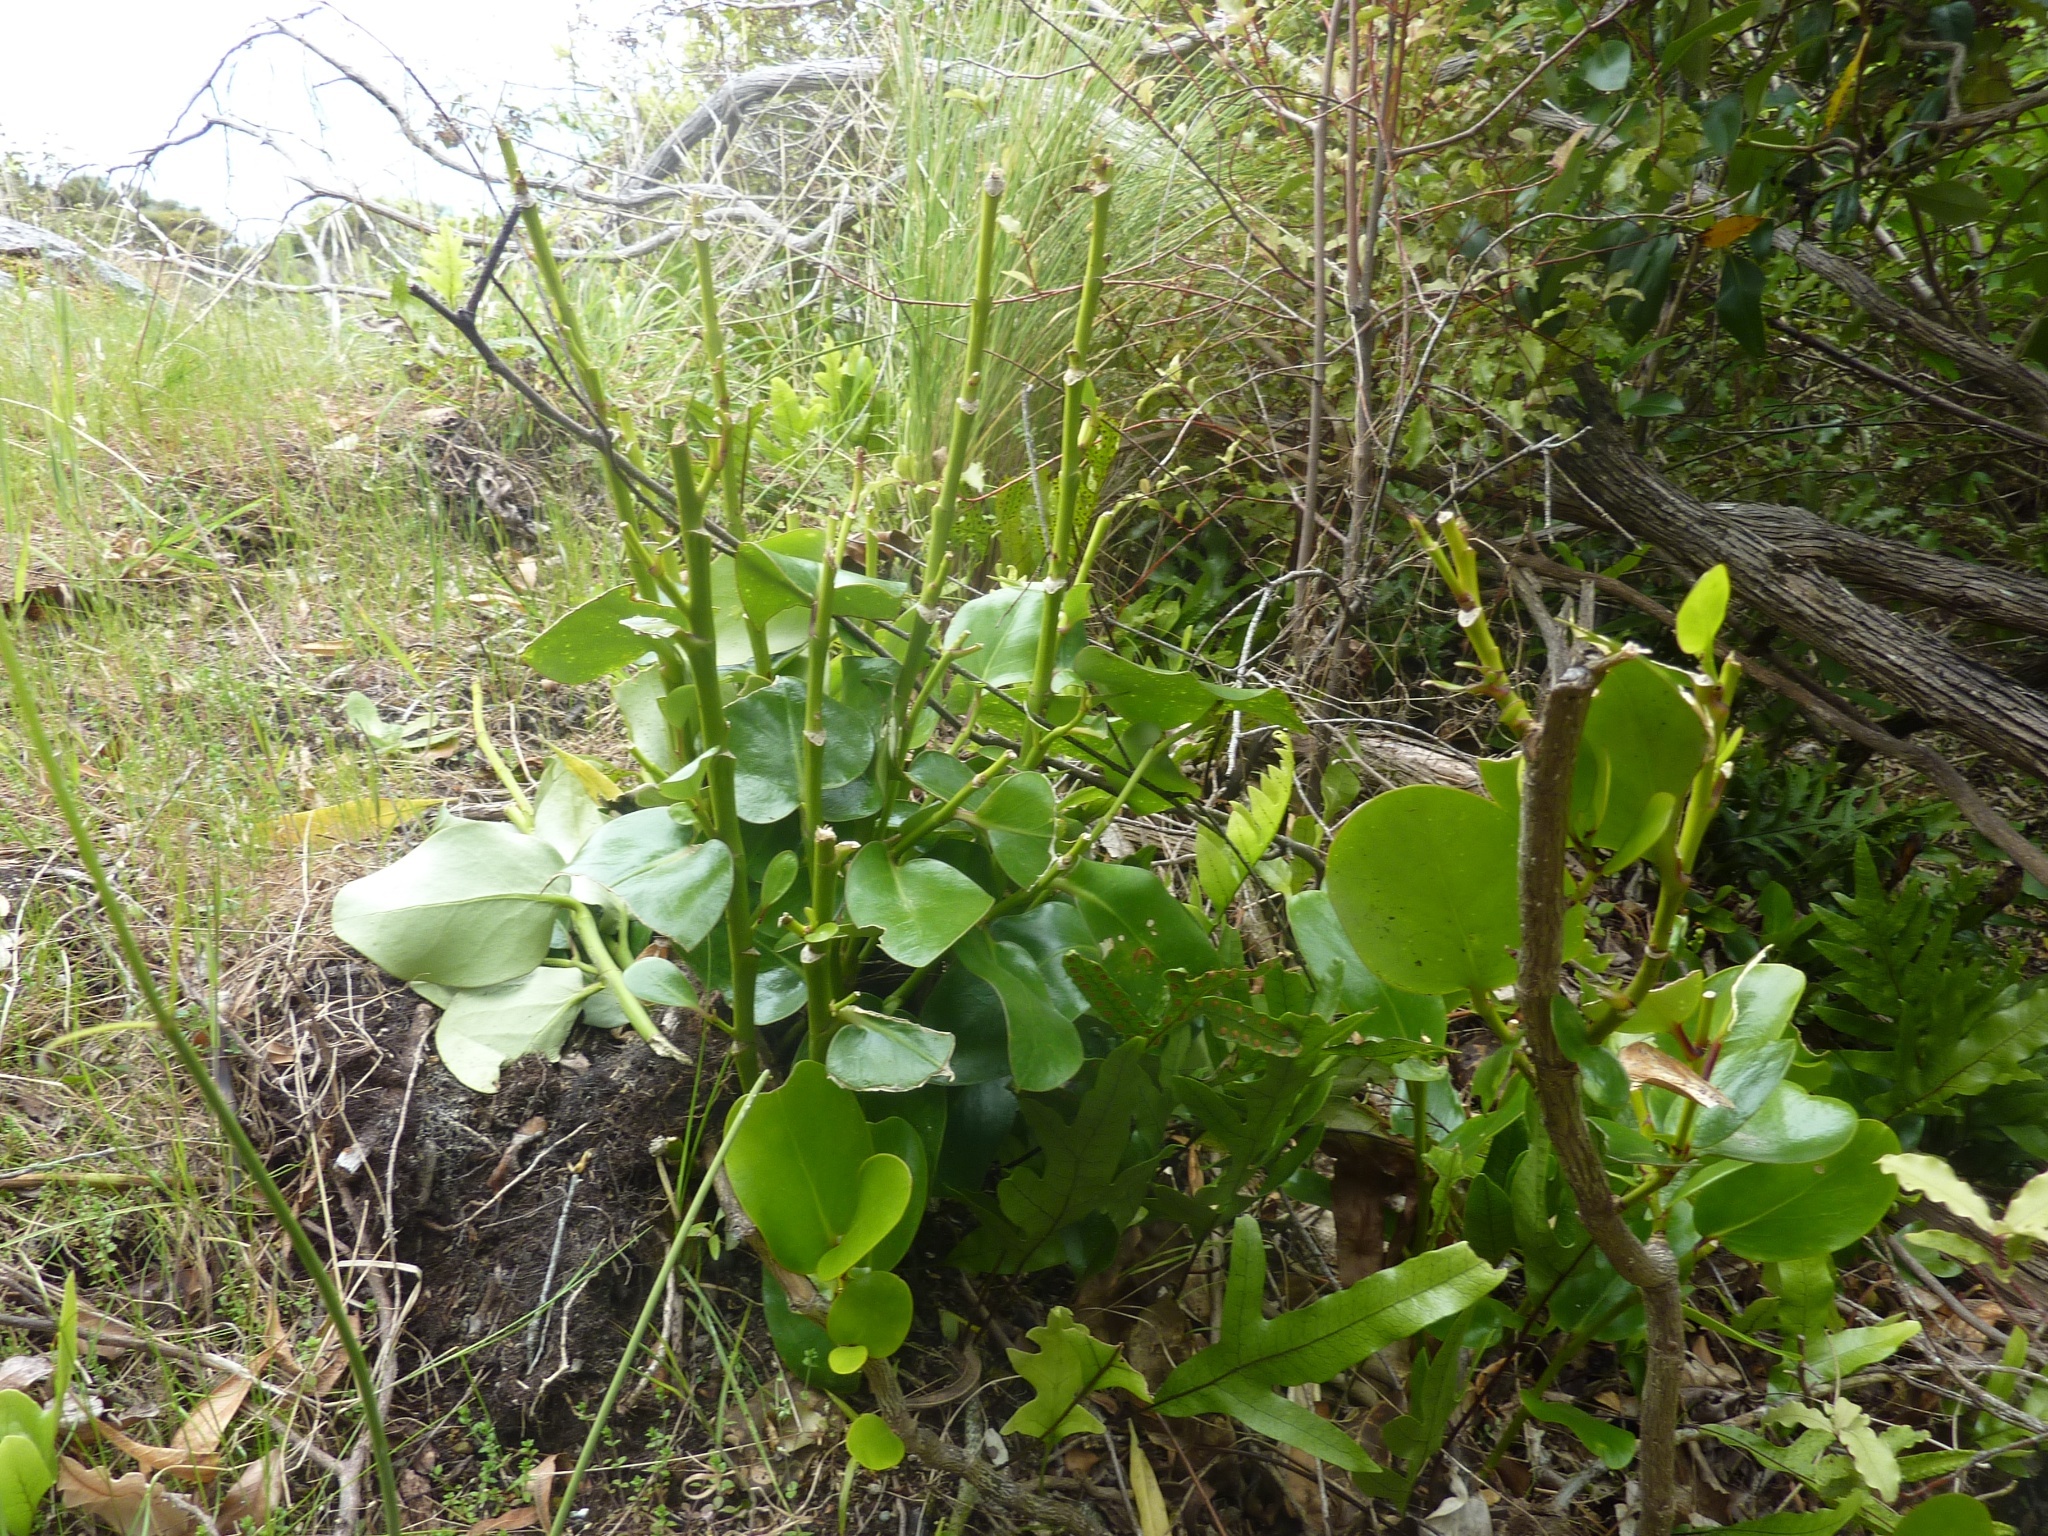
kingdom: Plantae
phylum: Tracheophyta
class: Magnoliopsida
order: Apiales
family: Griseliniaceae
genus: Griselinia
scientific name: Griselinia lucida
